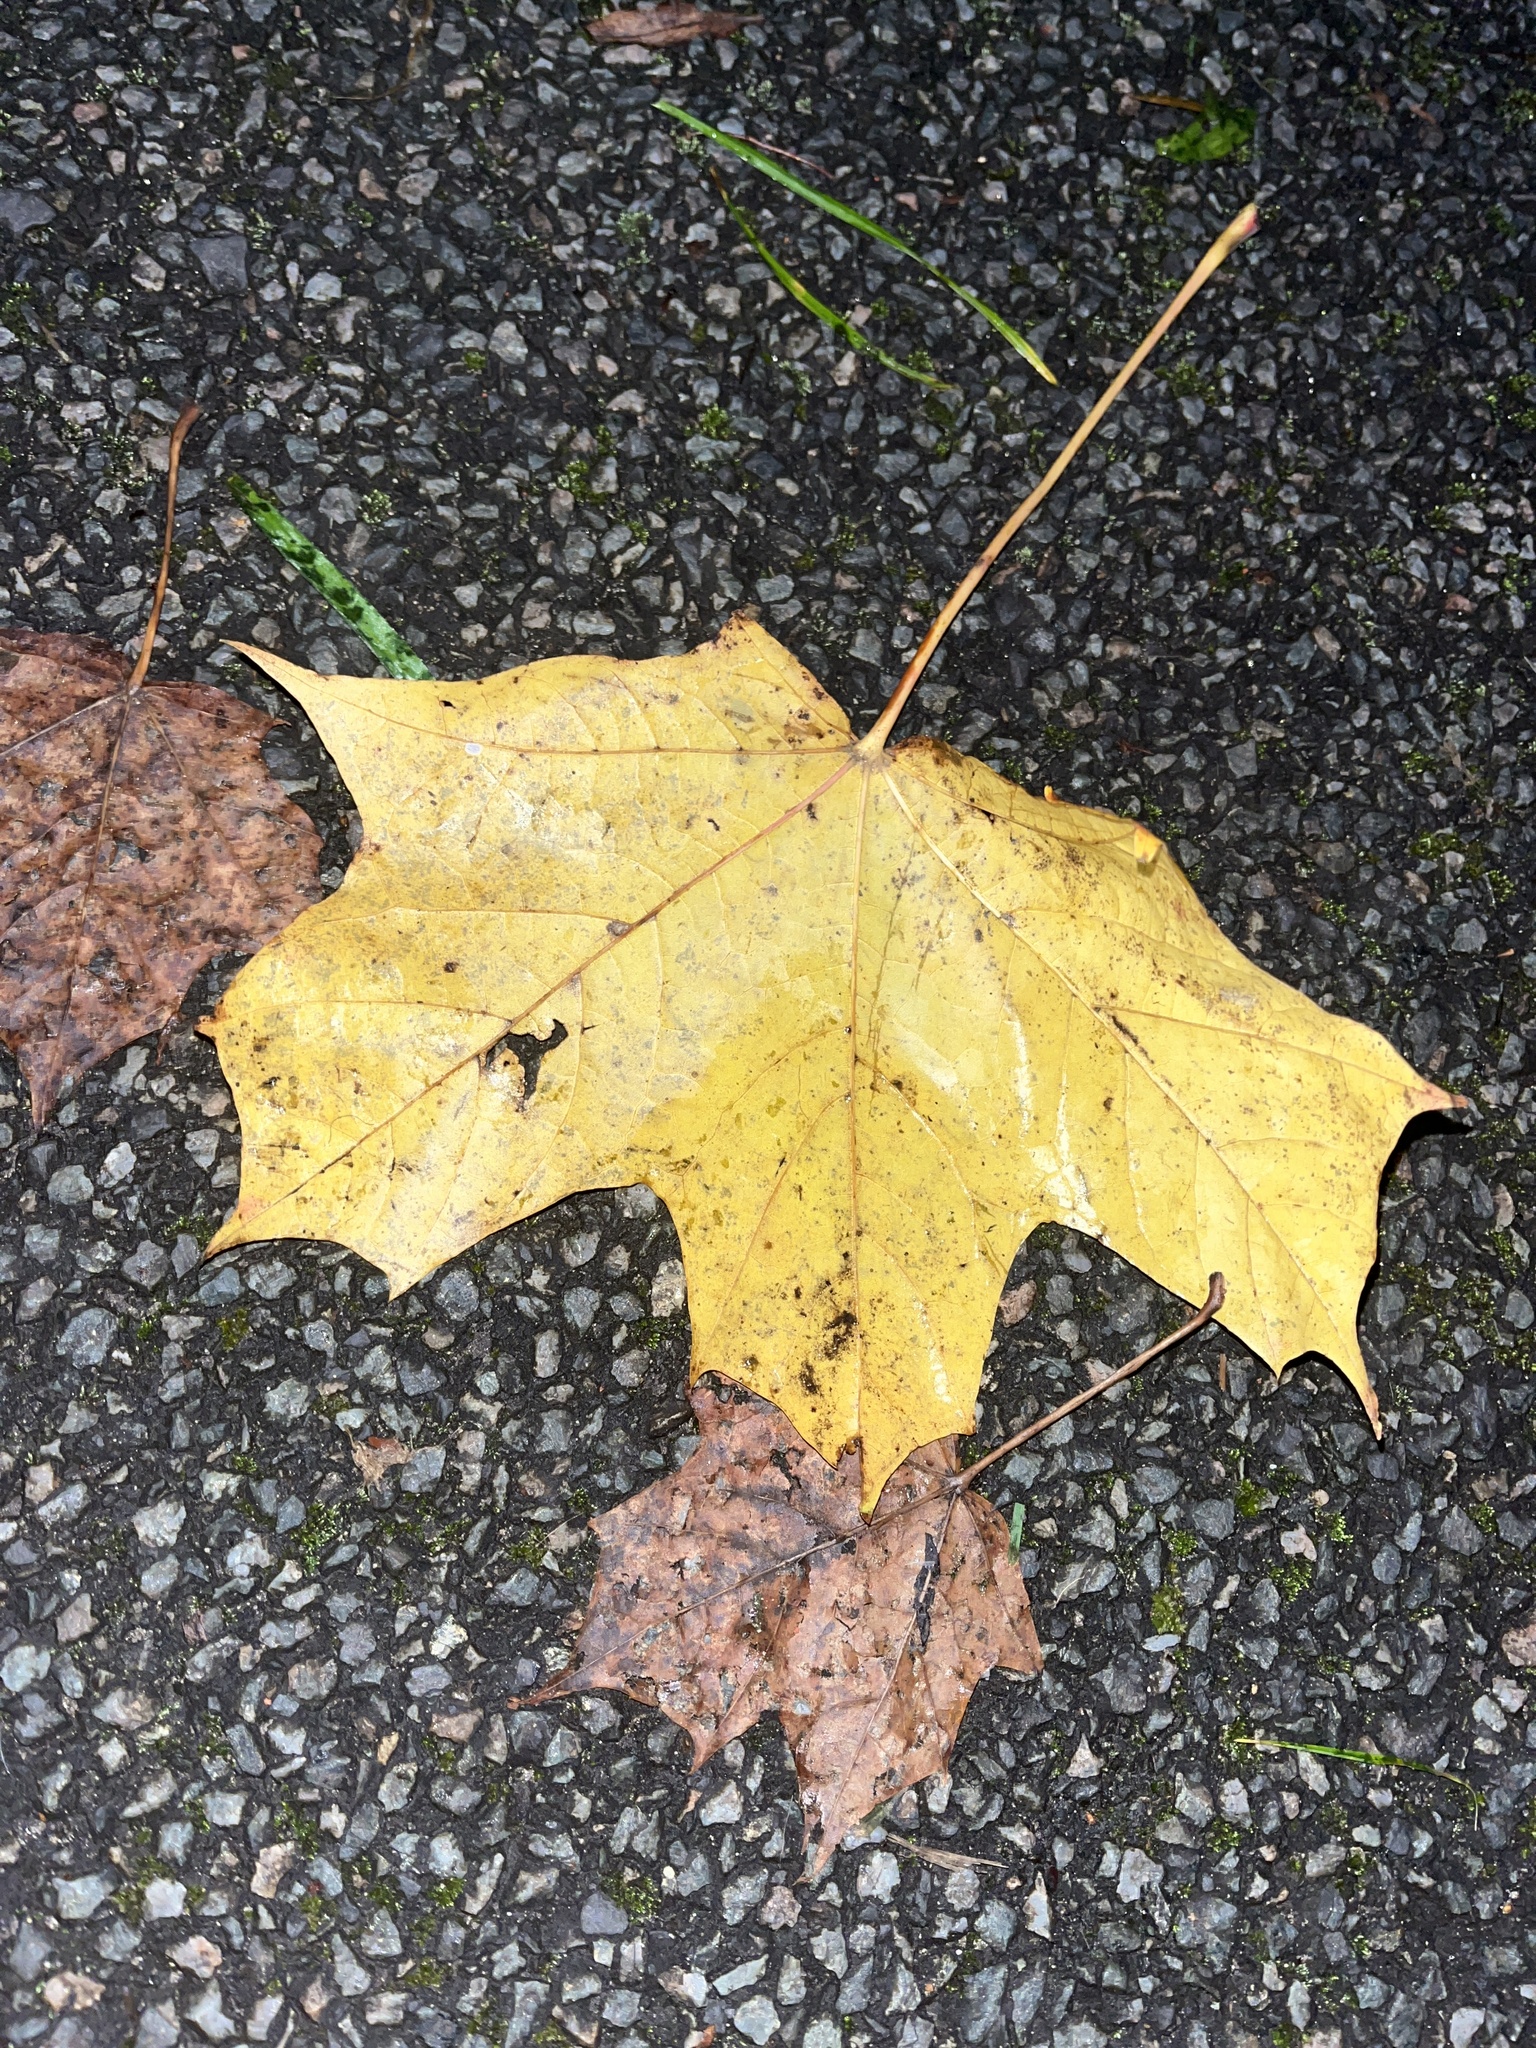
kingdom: Plantae
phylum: Tracheophyta
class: Magnoliopsida
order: Sapindales
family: Sapindaceae
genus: Acer
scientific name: Acer platanoides
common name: Norway maple
